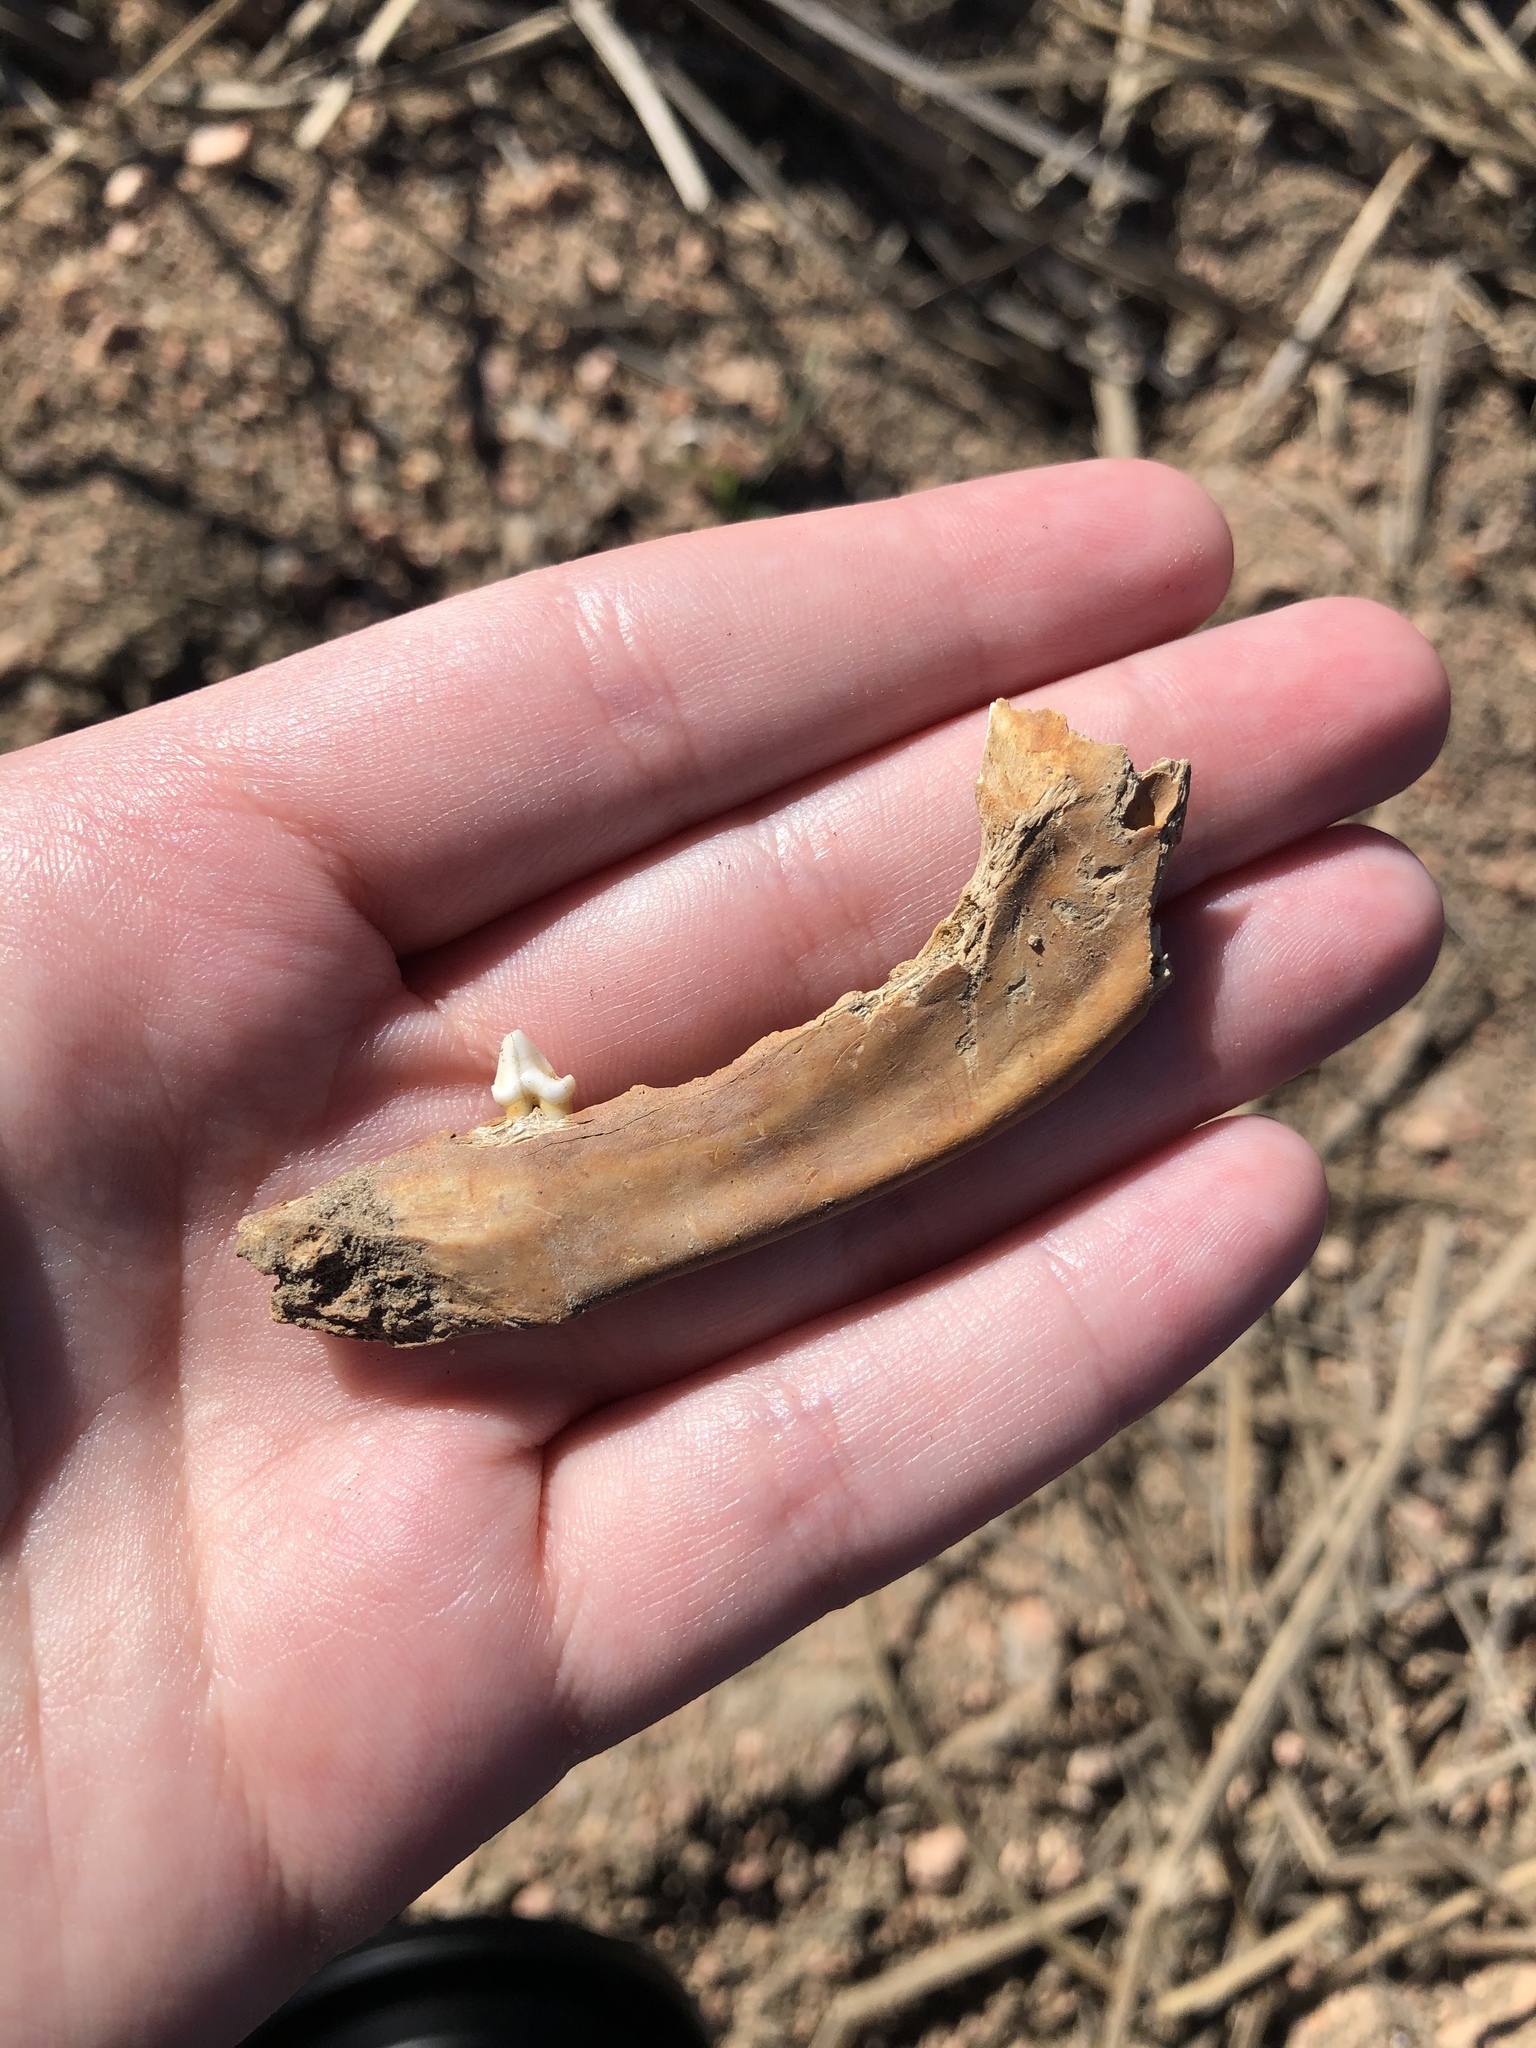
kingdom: Animalia
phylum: Chordata
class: Mammalia
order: Carnivora
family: Procyonidae
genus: Procyon
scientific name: Procyon lotor
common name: Raccoon
